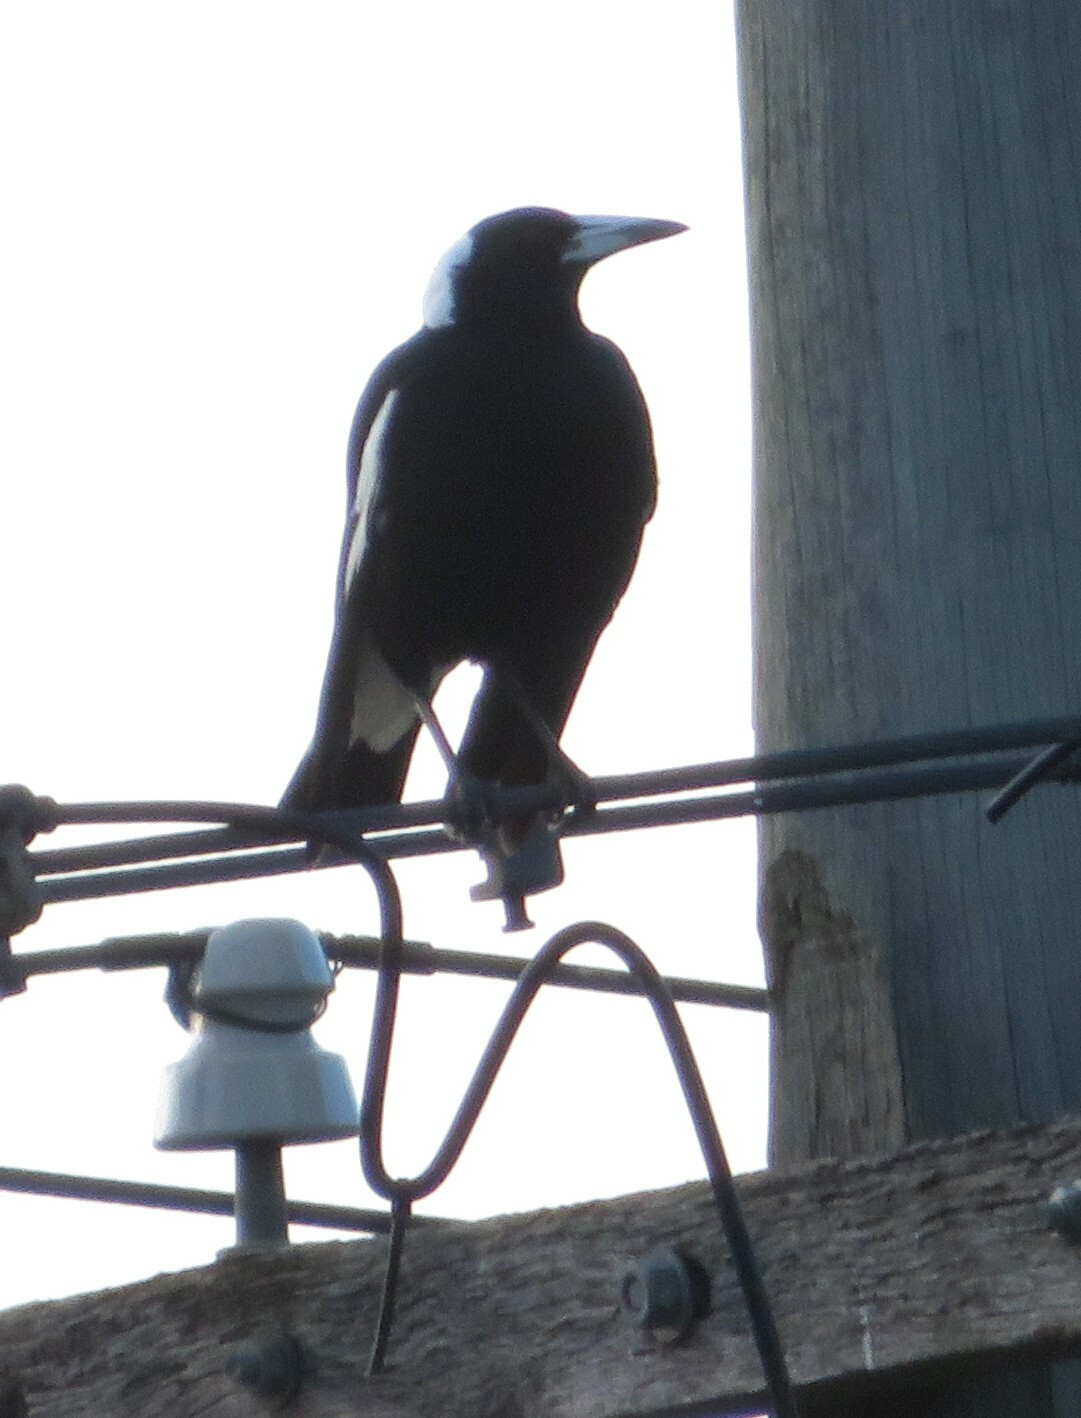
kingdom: Animalia
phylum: Chordata
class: Aves
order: Passeriformes
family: Cracticidae
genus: Gymnorhina
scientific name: Gymnorhina tibicen
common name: Australian magpie
